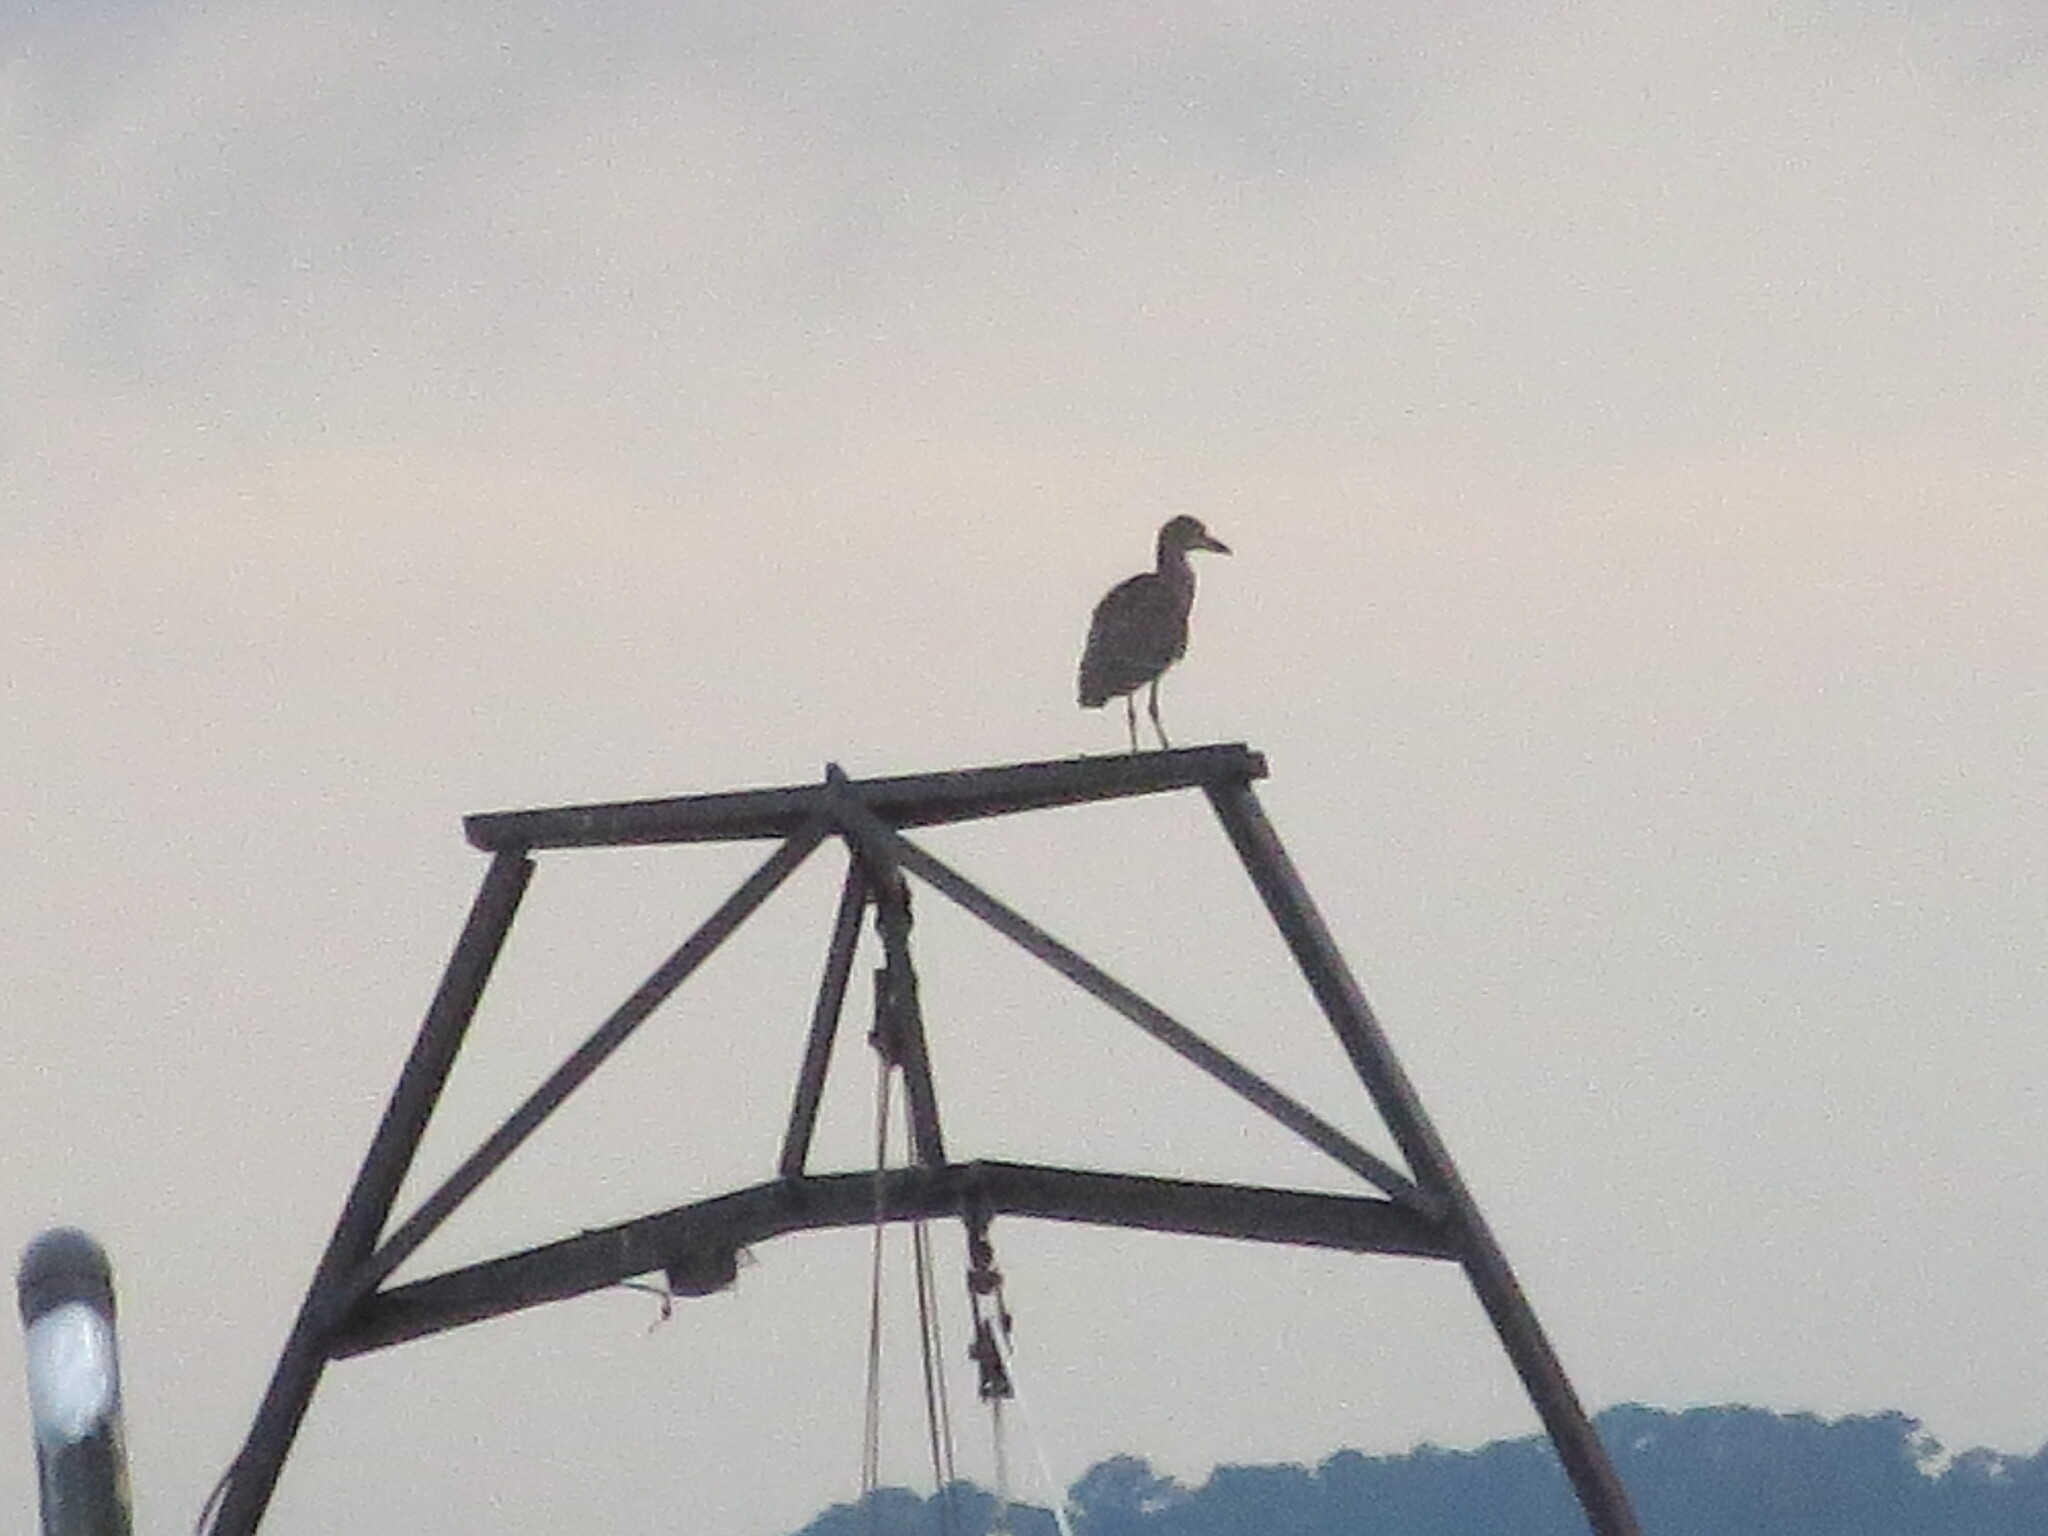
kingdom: Animalia
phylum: Chordata
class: Aves
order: Pelecaniformes
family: Ardeidae
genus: Nyctanassa
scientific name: Nyctanassa violacea
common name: Yellow-crowned night heron
